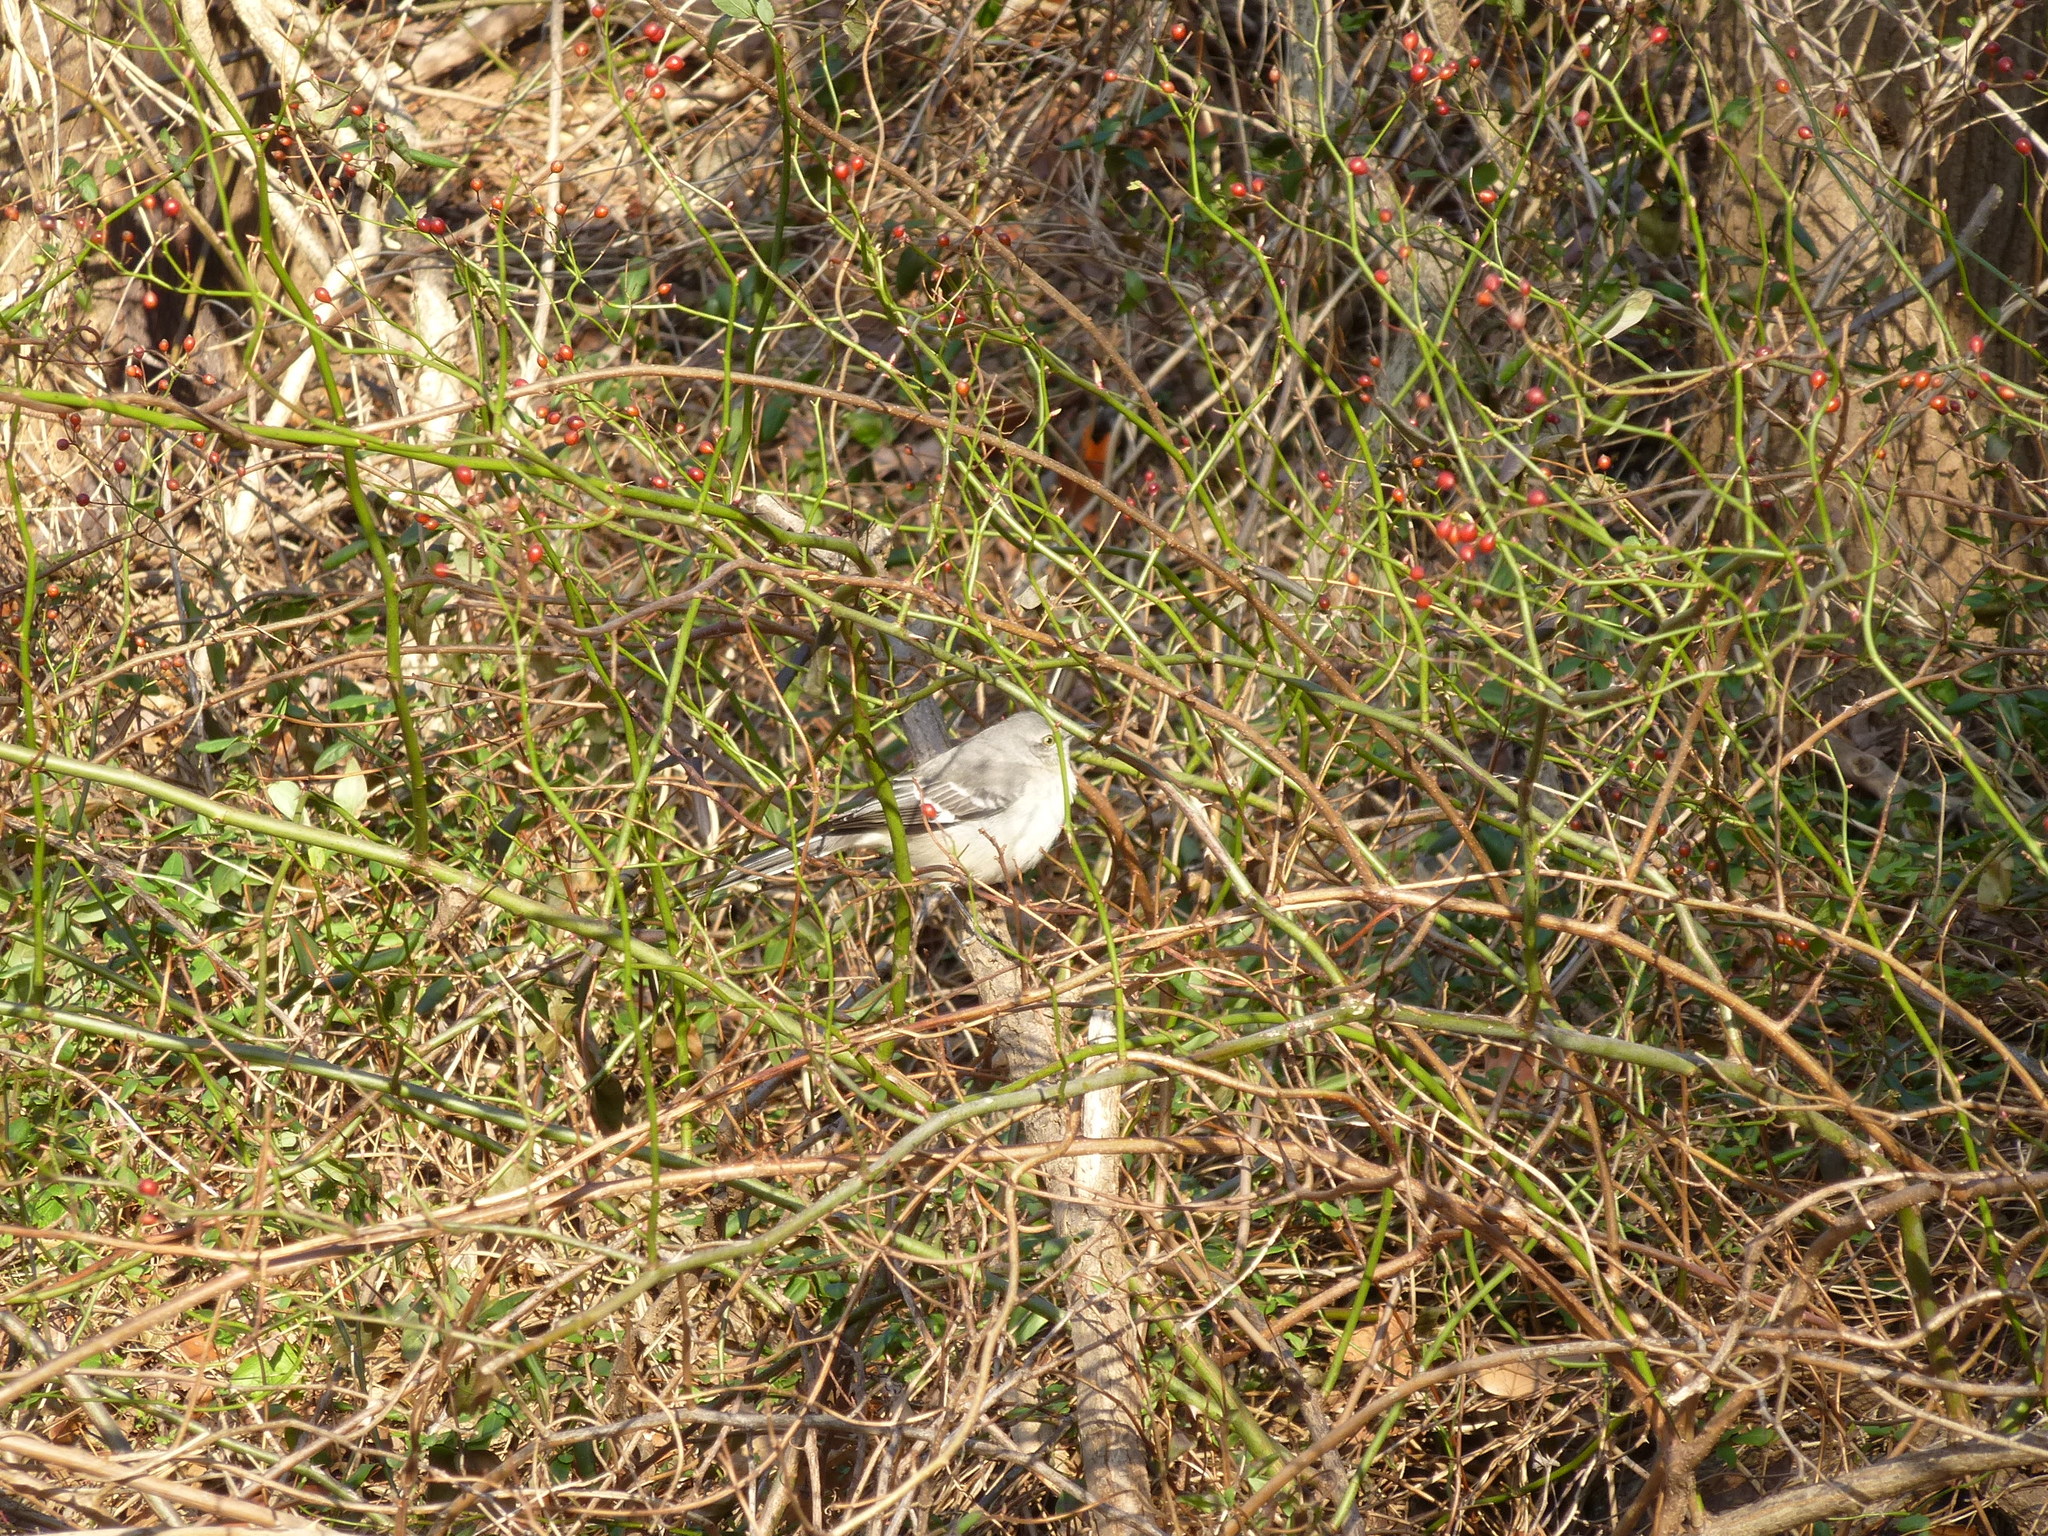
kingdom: Animalia
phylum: Chordata
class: Aves
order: Passeriformes
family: Mimidae
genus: Mimus
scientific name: Mimus polyglottos
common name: Northern mockingbird
